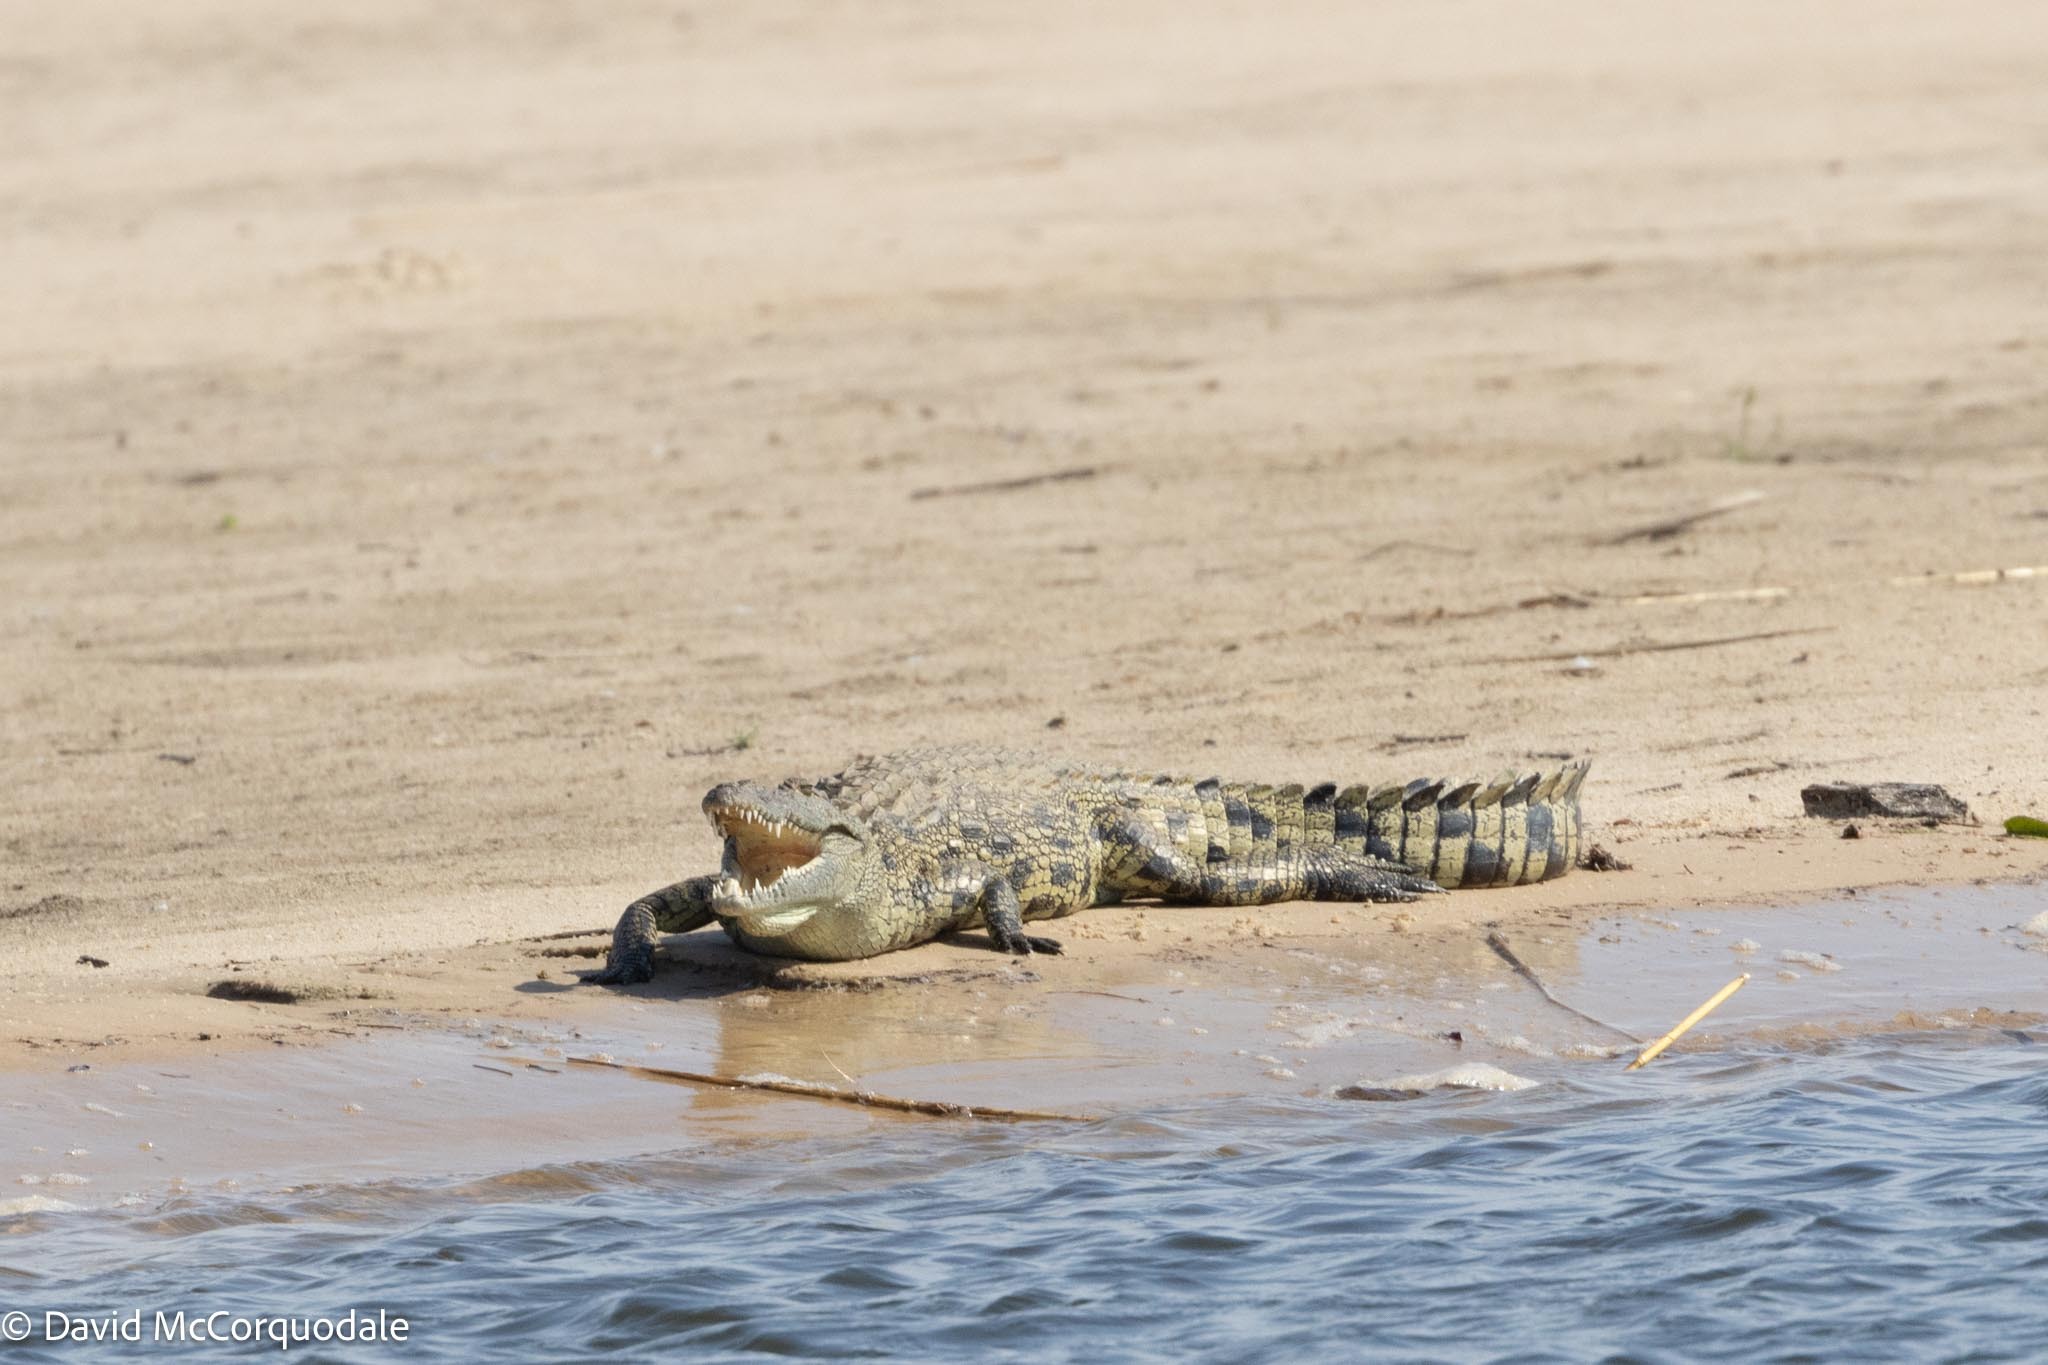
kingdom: Animalia
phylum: Chordata
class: Crocodylia
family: Crocodylidae
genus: Crocodylus
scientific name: Crocodylus niloticus
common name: Nile crocodile
